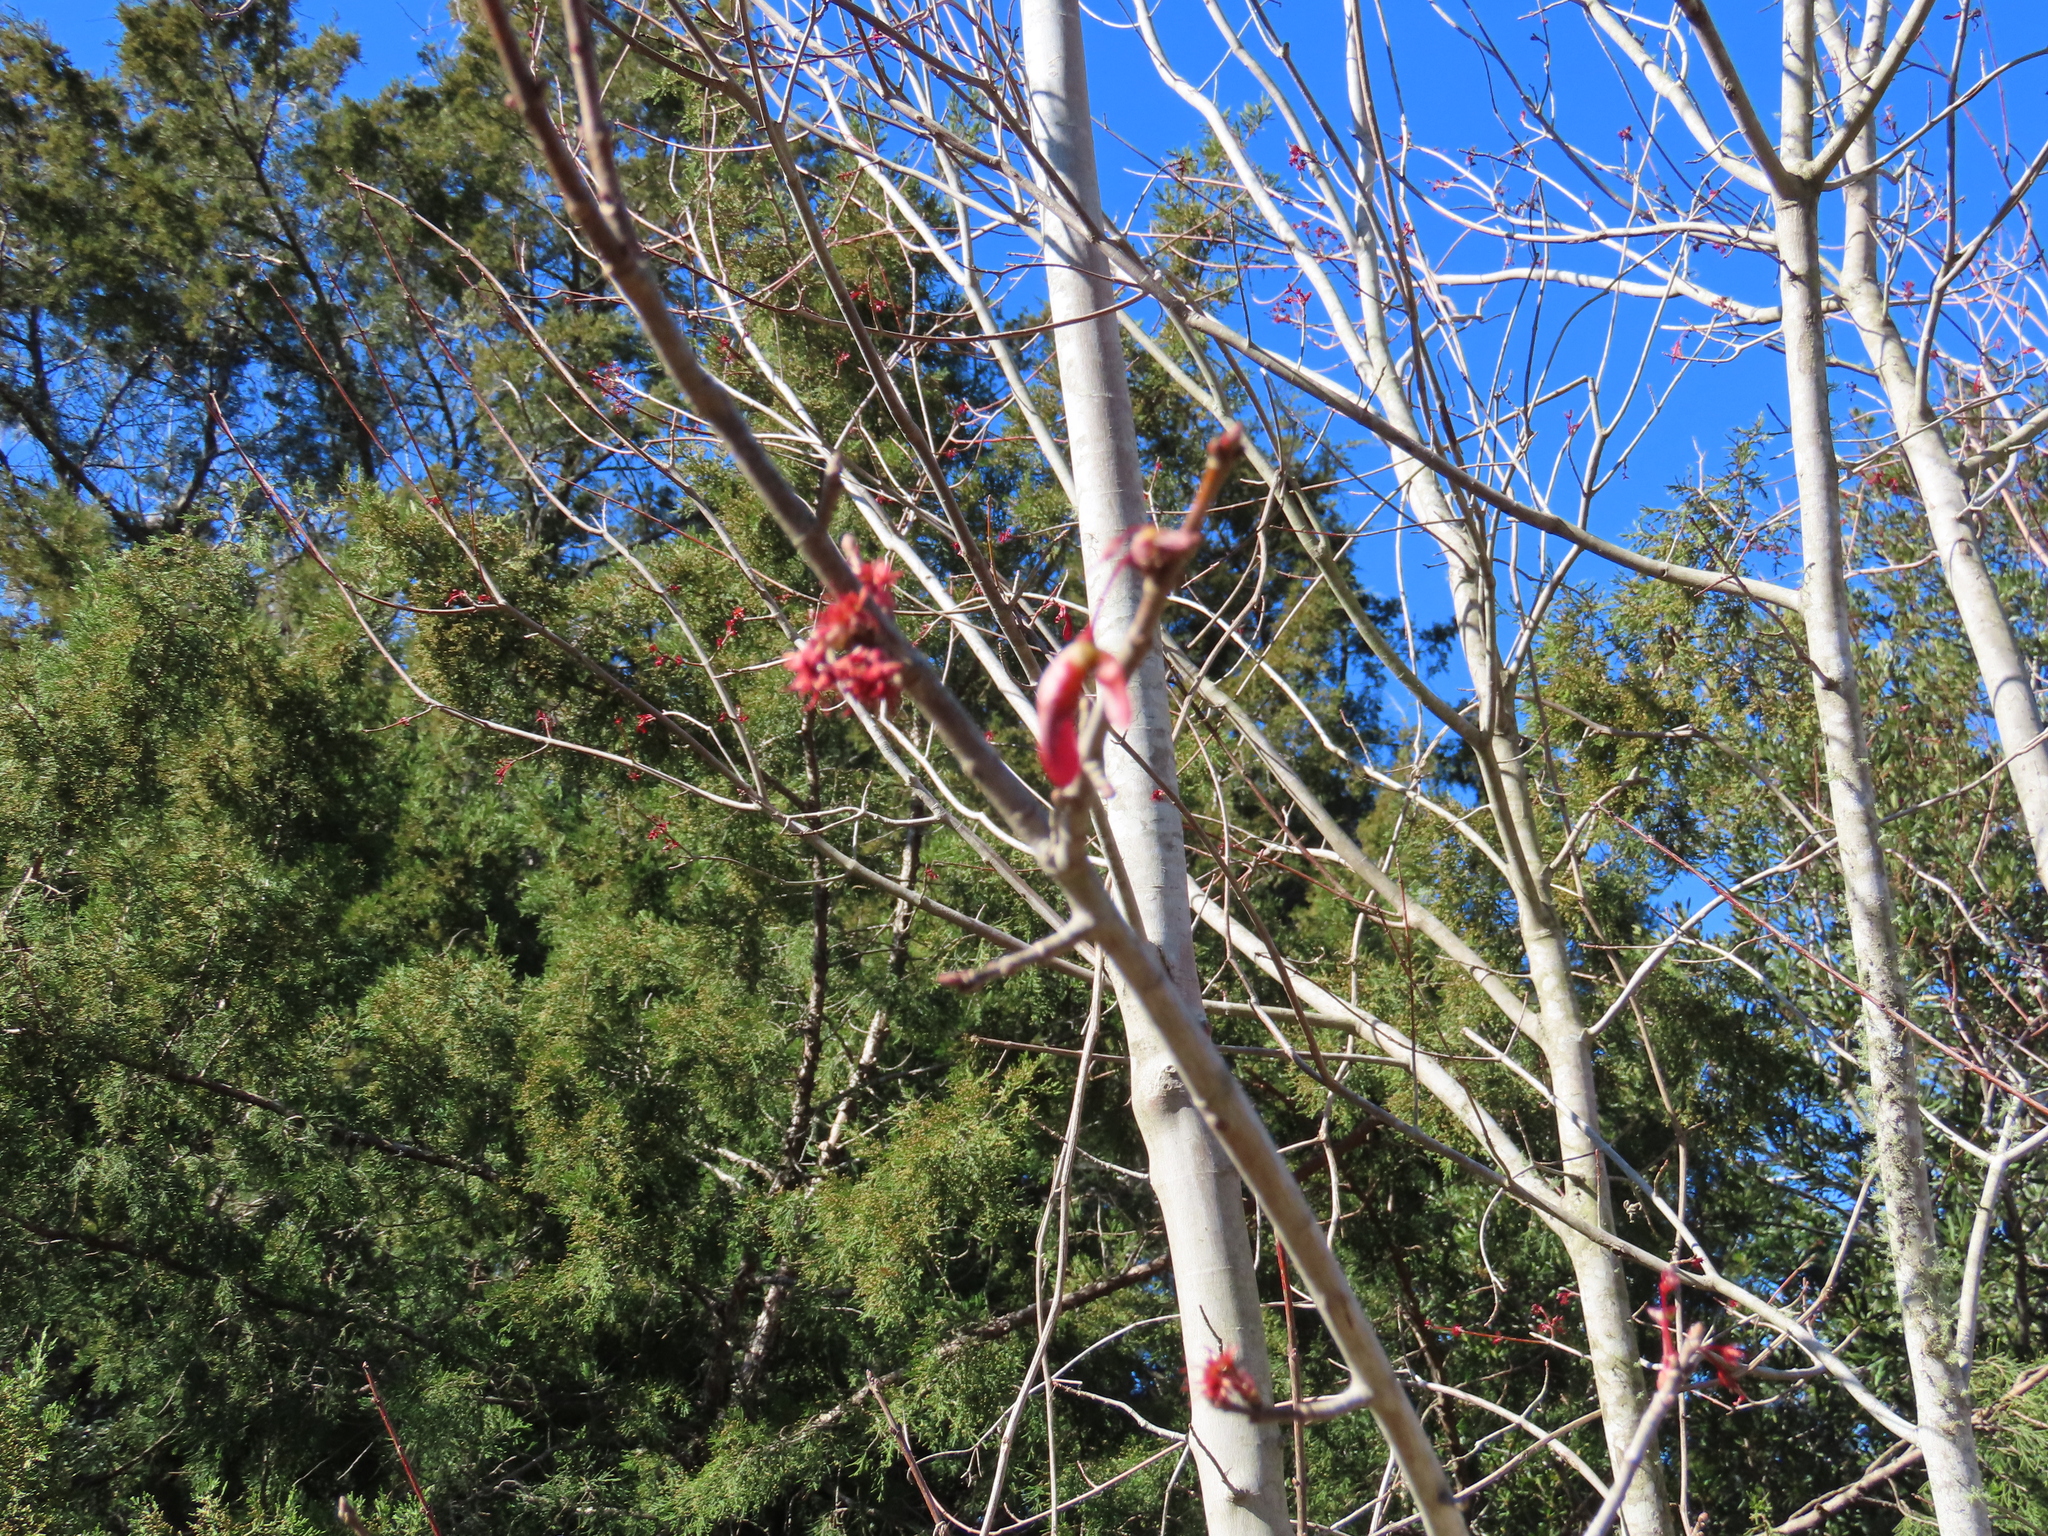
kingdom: Plantae
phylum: Tracheophyta
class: Magnoliopsida
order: Sapindales
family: Sapindaceae
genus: Acer
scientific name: Acer rubrum
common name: Red maple
